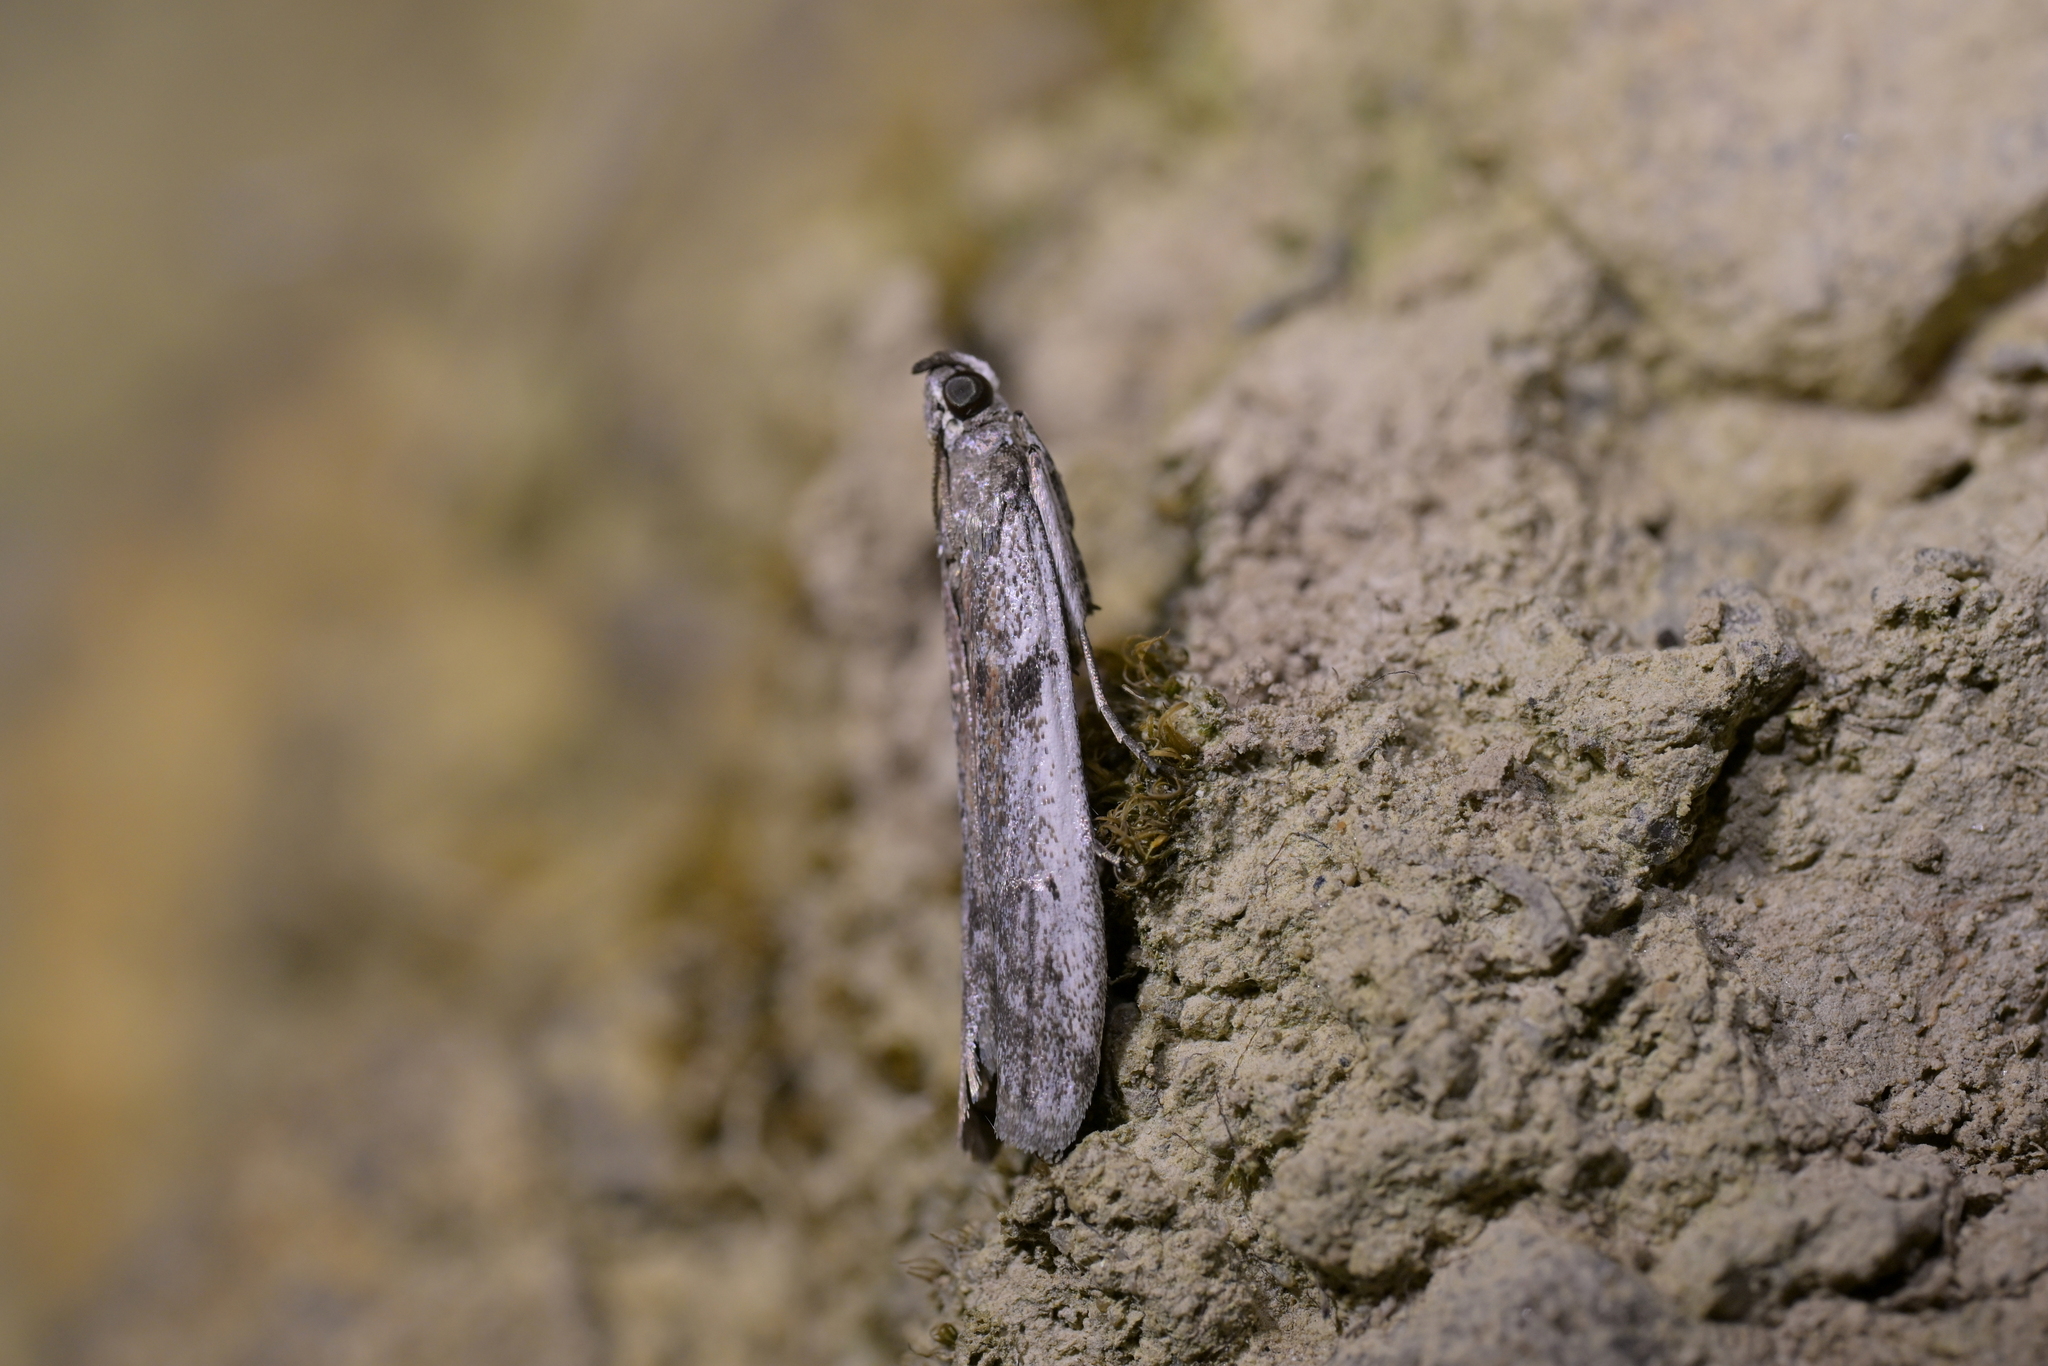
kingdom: Animalia
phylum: Arthropoda
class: Insecta
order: Lepidoptera
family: Pyralidae
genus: Patagoniodes
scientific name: Patagoniodes farinaria
